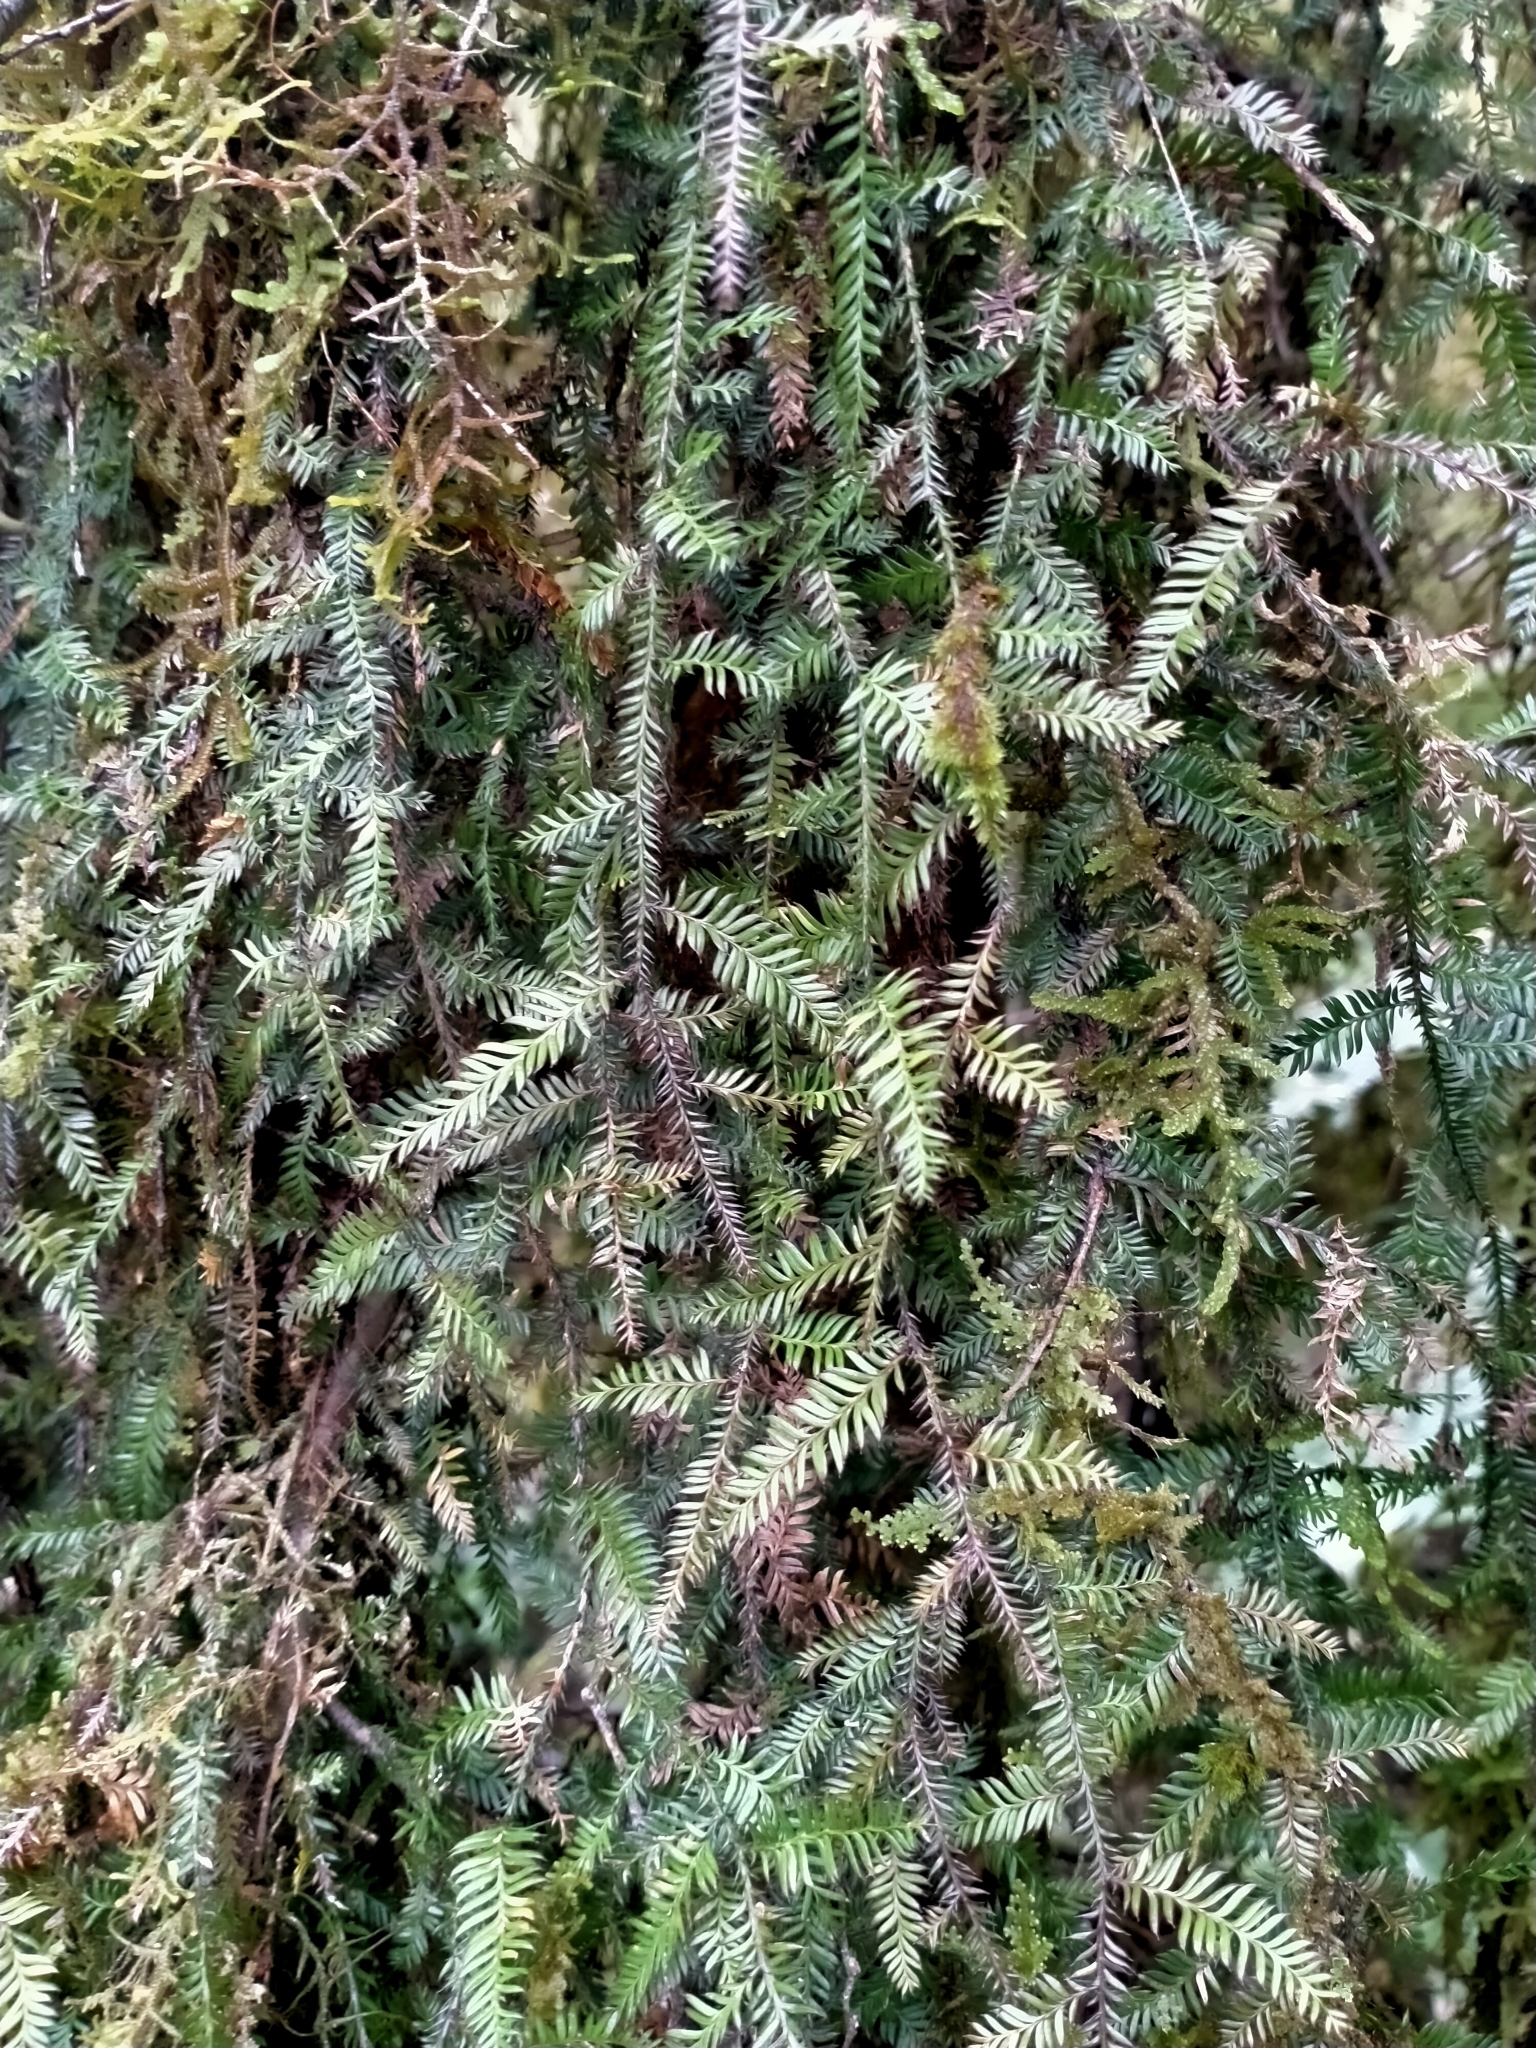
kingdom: Plantae
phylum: Tracheophyta
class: Pinopsida
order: Pinales
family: Podocarpaceae
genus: Dacrycarpus
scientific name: Dacrycarpus dacrydioides
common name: White pine
